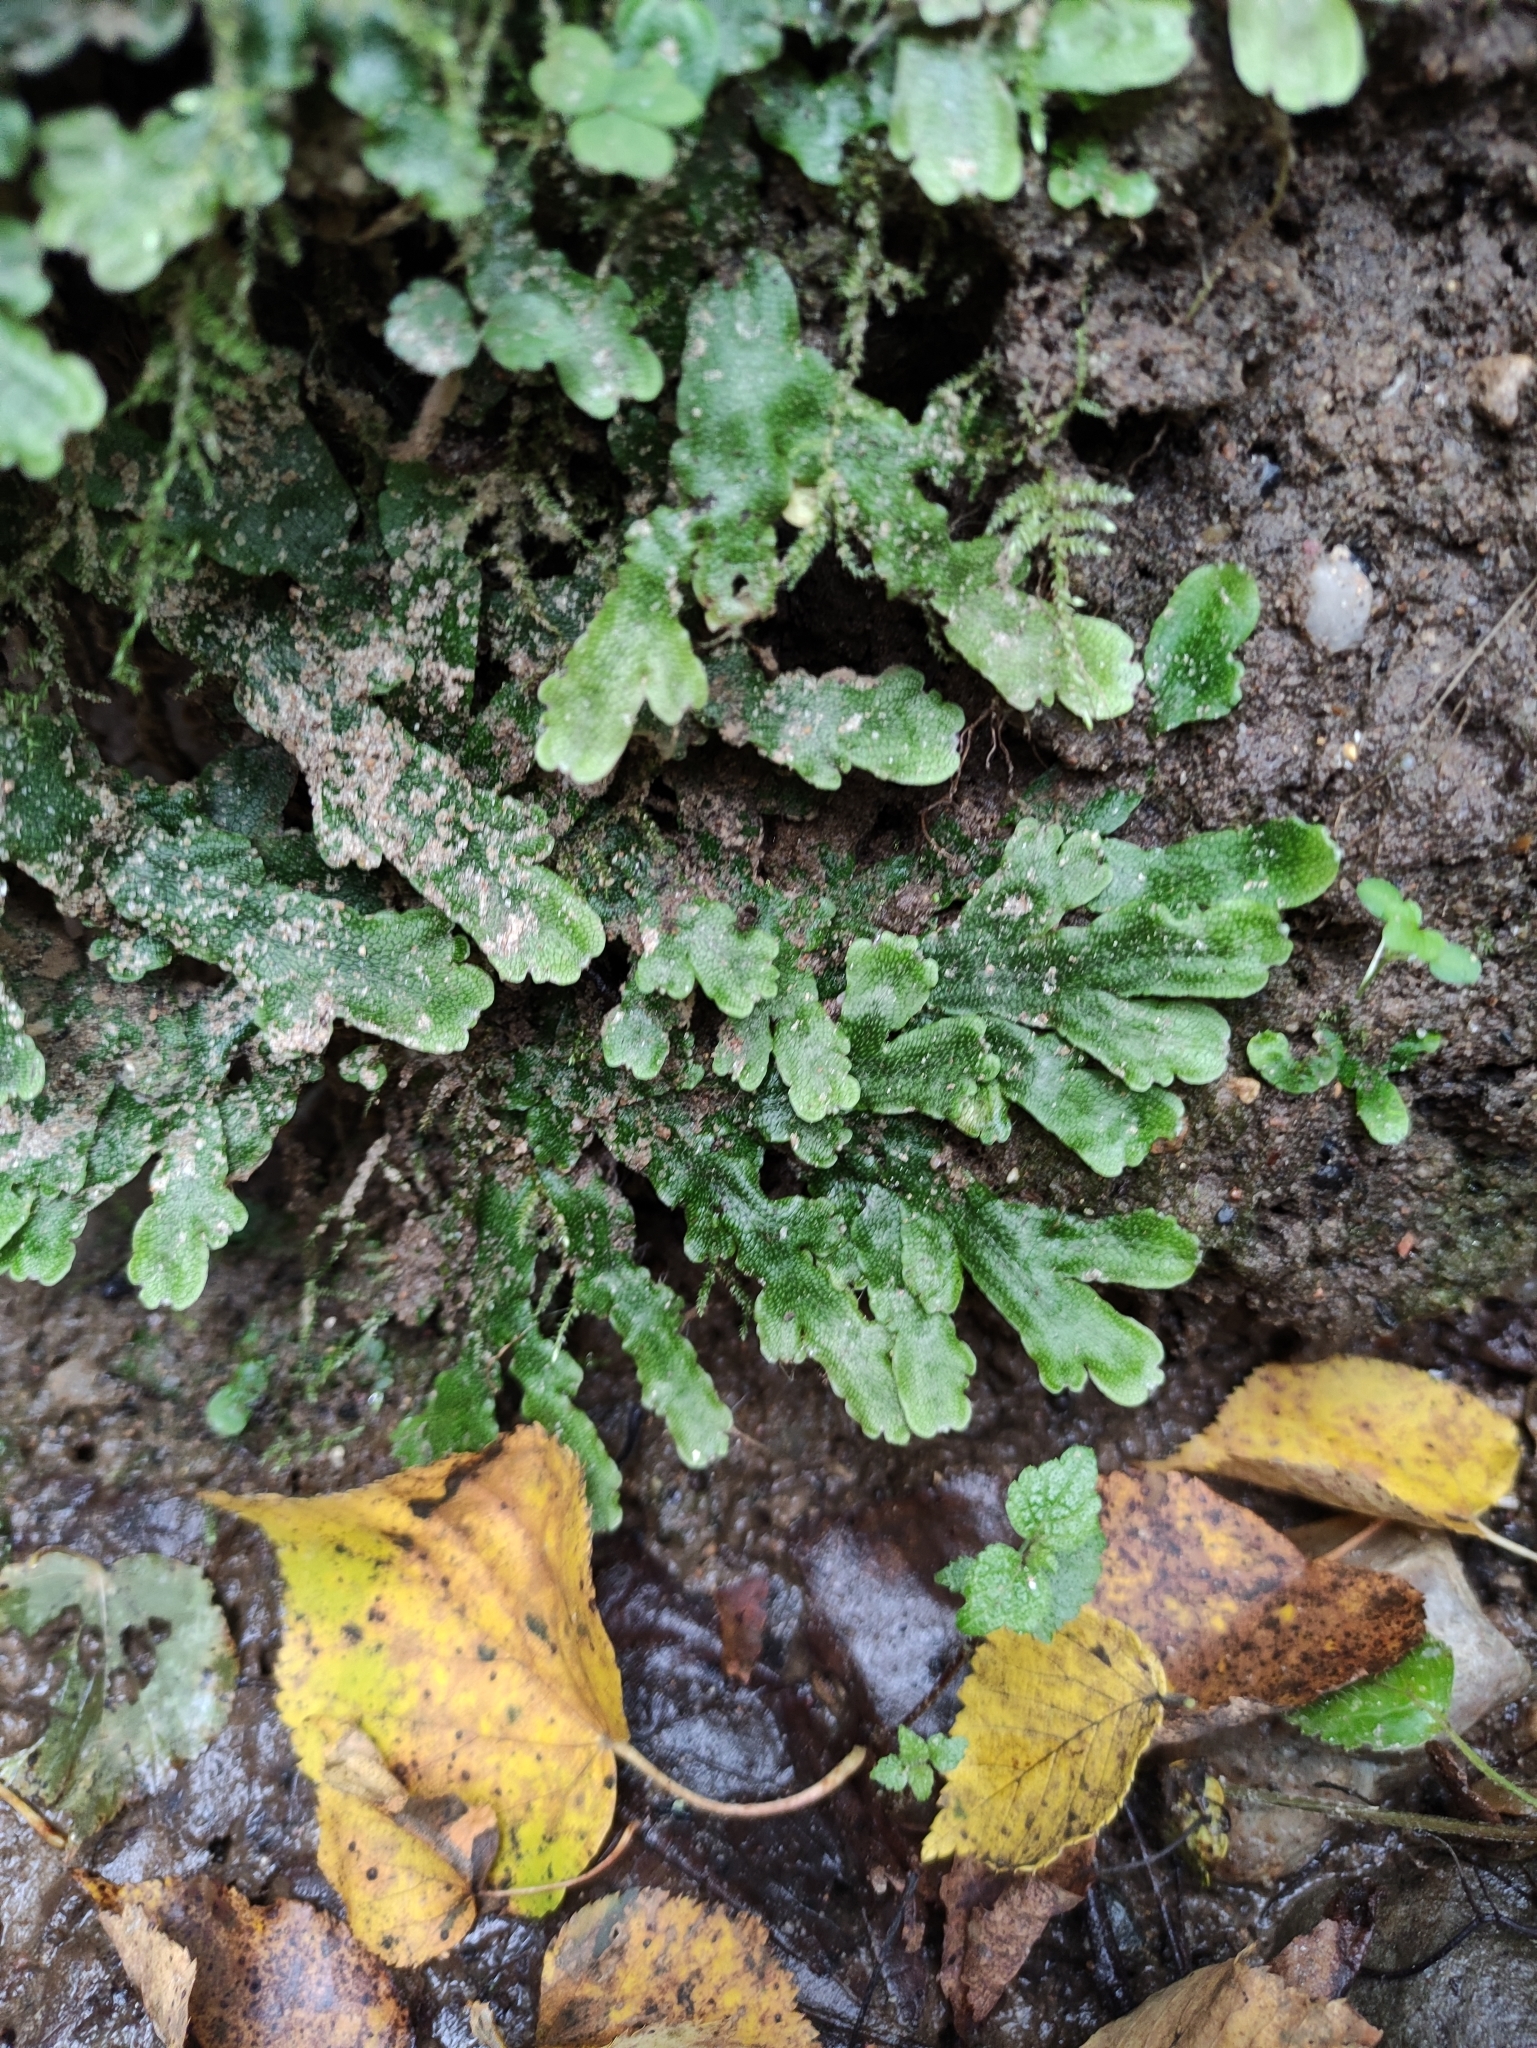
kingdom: Plantae
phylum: Marchantiophyta
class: Marchantiopsida
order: Marchantiales
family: Conocephalaceae
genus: Conocephalum
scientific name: Conocephalum conicum
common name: Great scented liverwort
